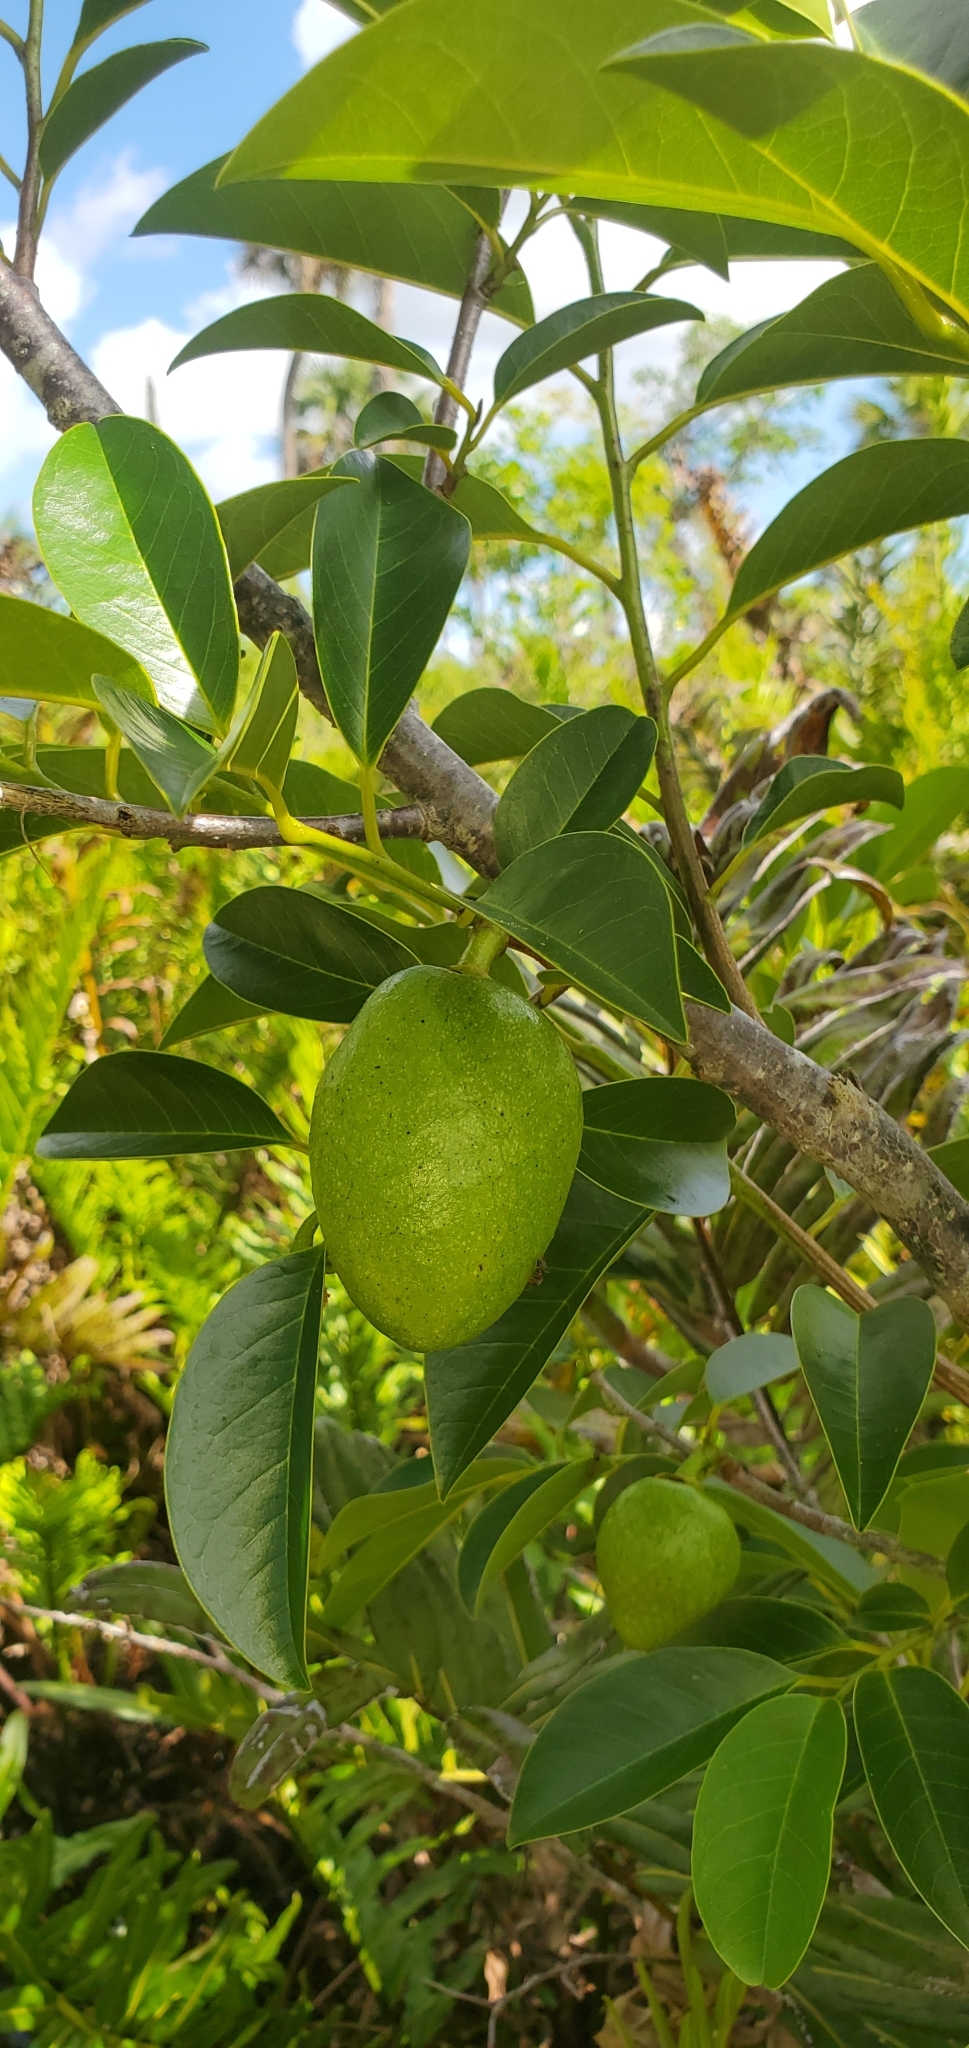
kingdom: Plantae
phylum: Tracheophyta
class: Magnoliopsida
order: Magnoliales
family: Annonaceae
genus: Annona
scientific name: Annona glabra
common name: Monkey apple
